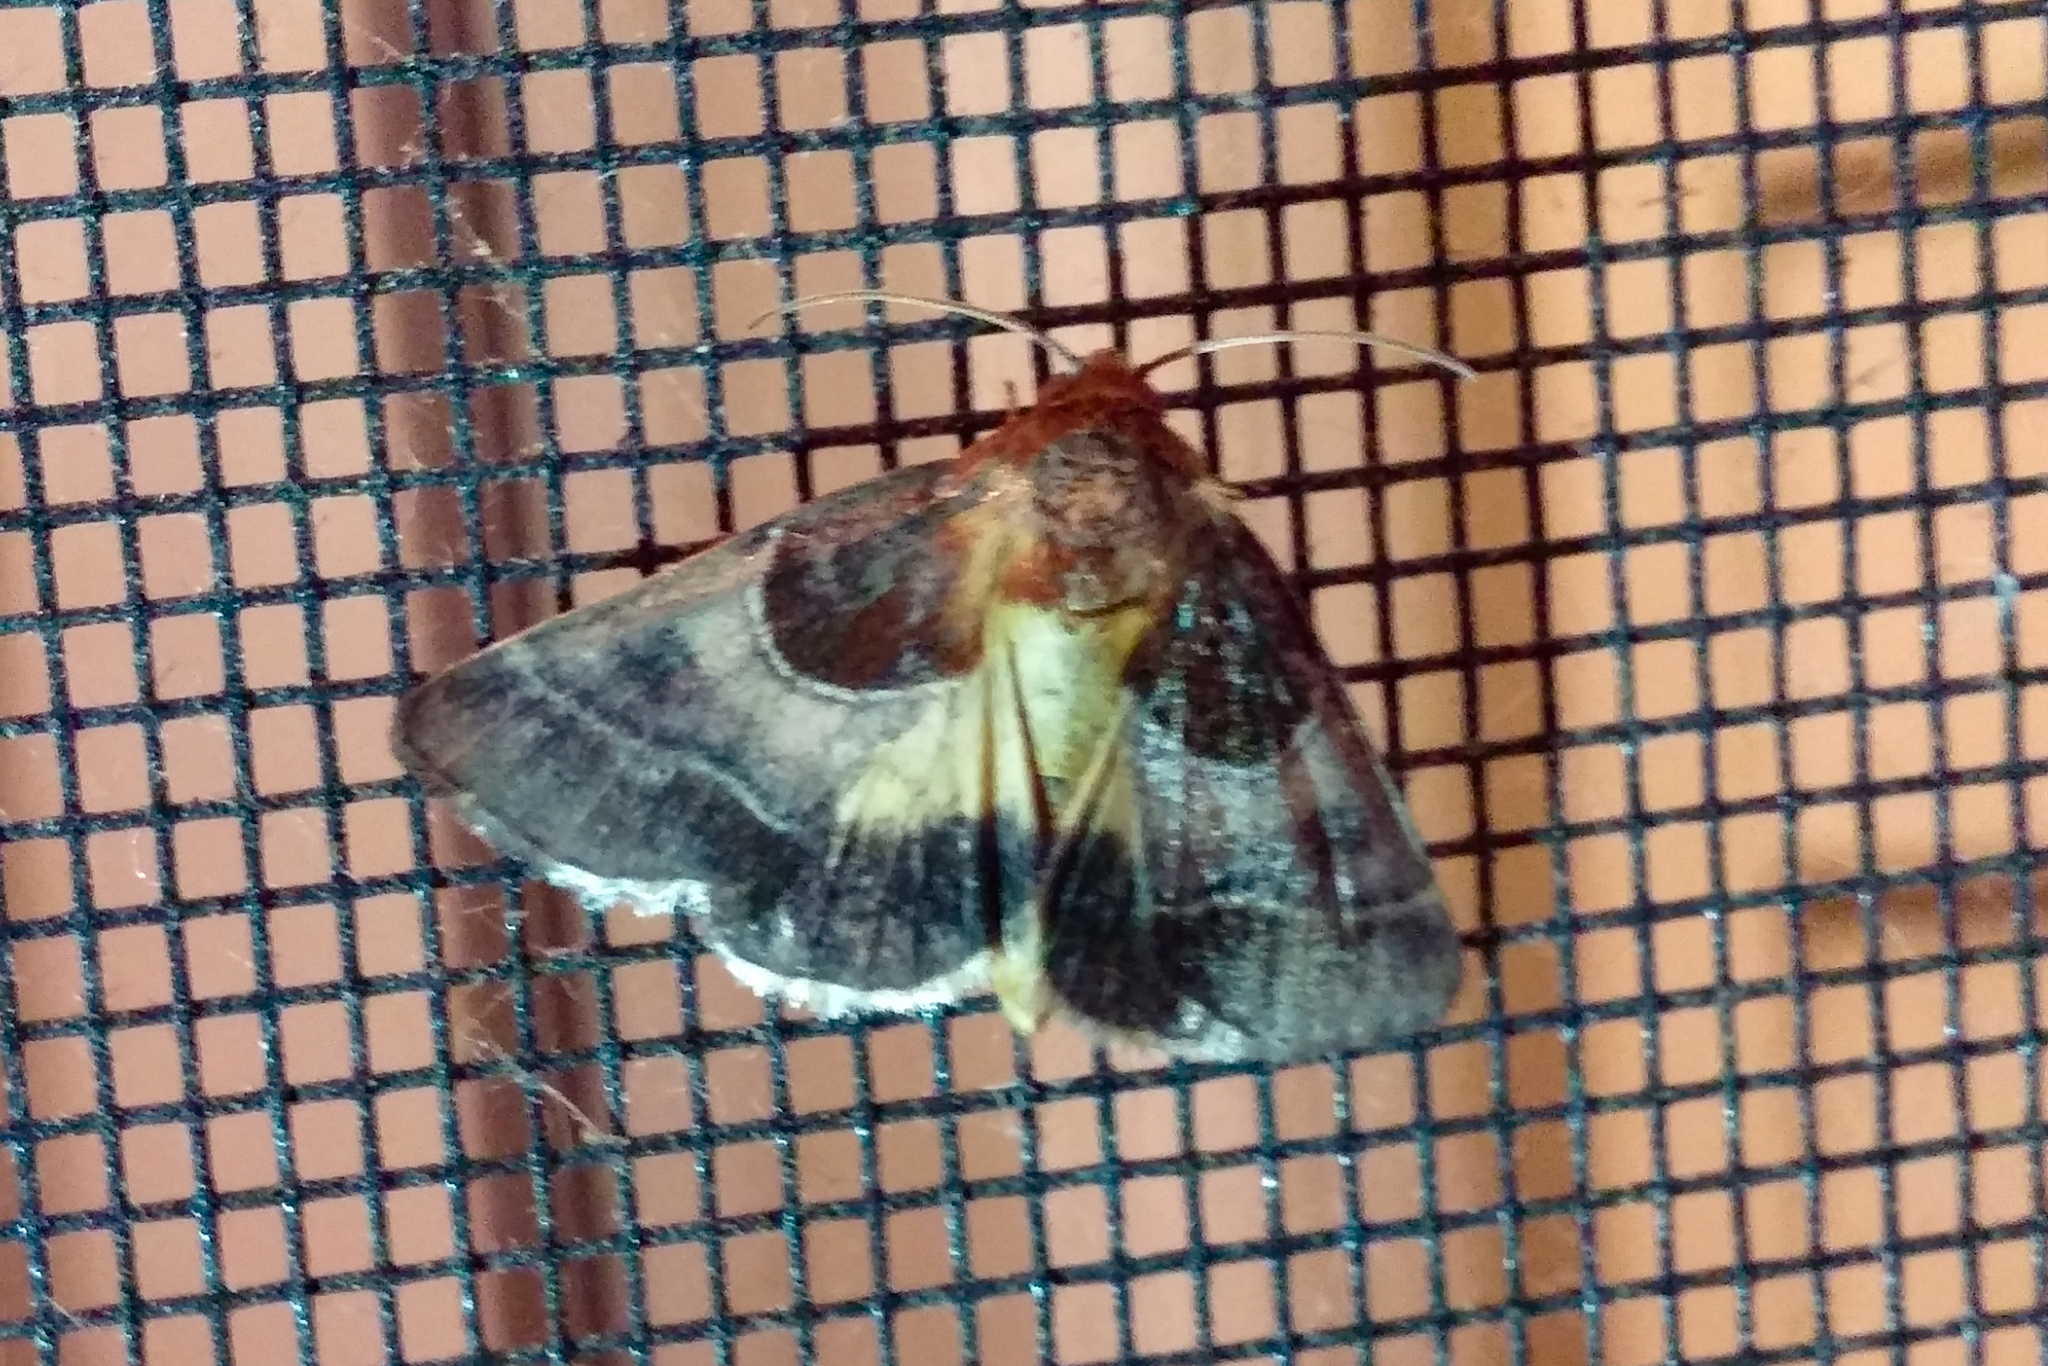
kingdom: Animalia
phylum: Arthropoda
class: Insecta
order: Lepidoptera
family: Noctuidae
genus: Schinia
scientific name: Schinia arcigera
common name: Arcigera flower moth
